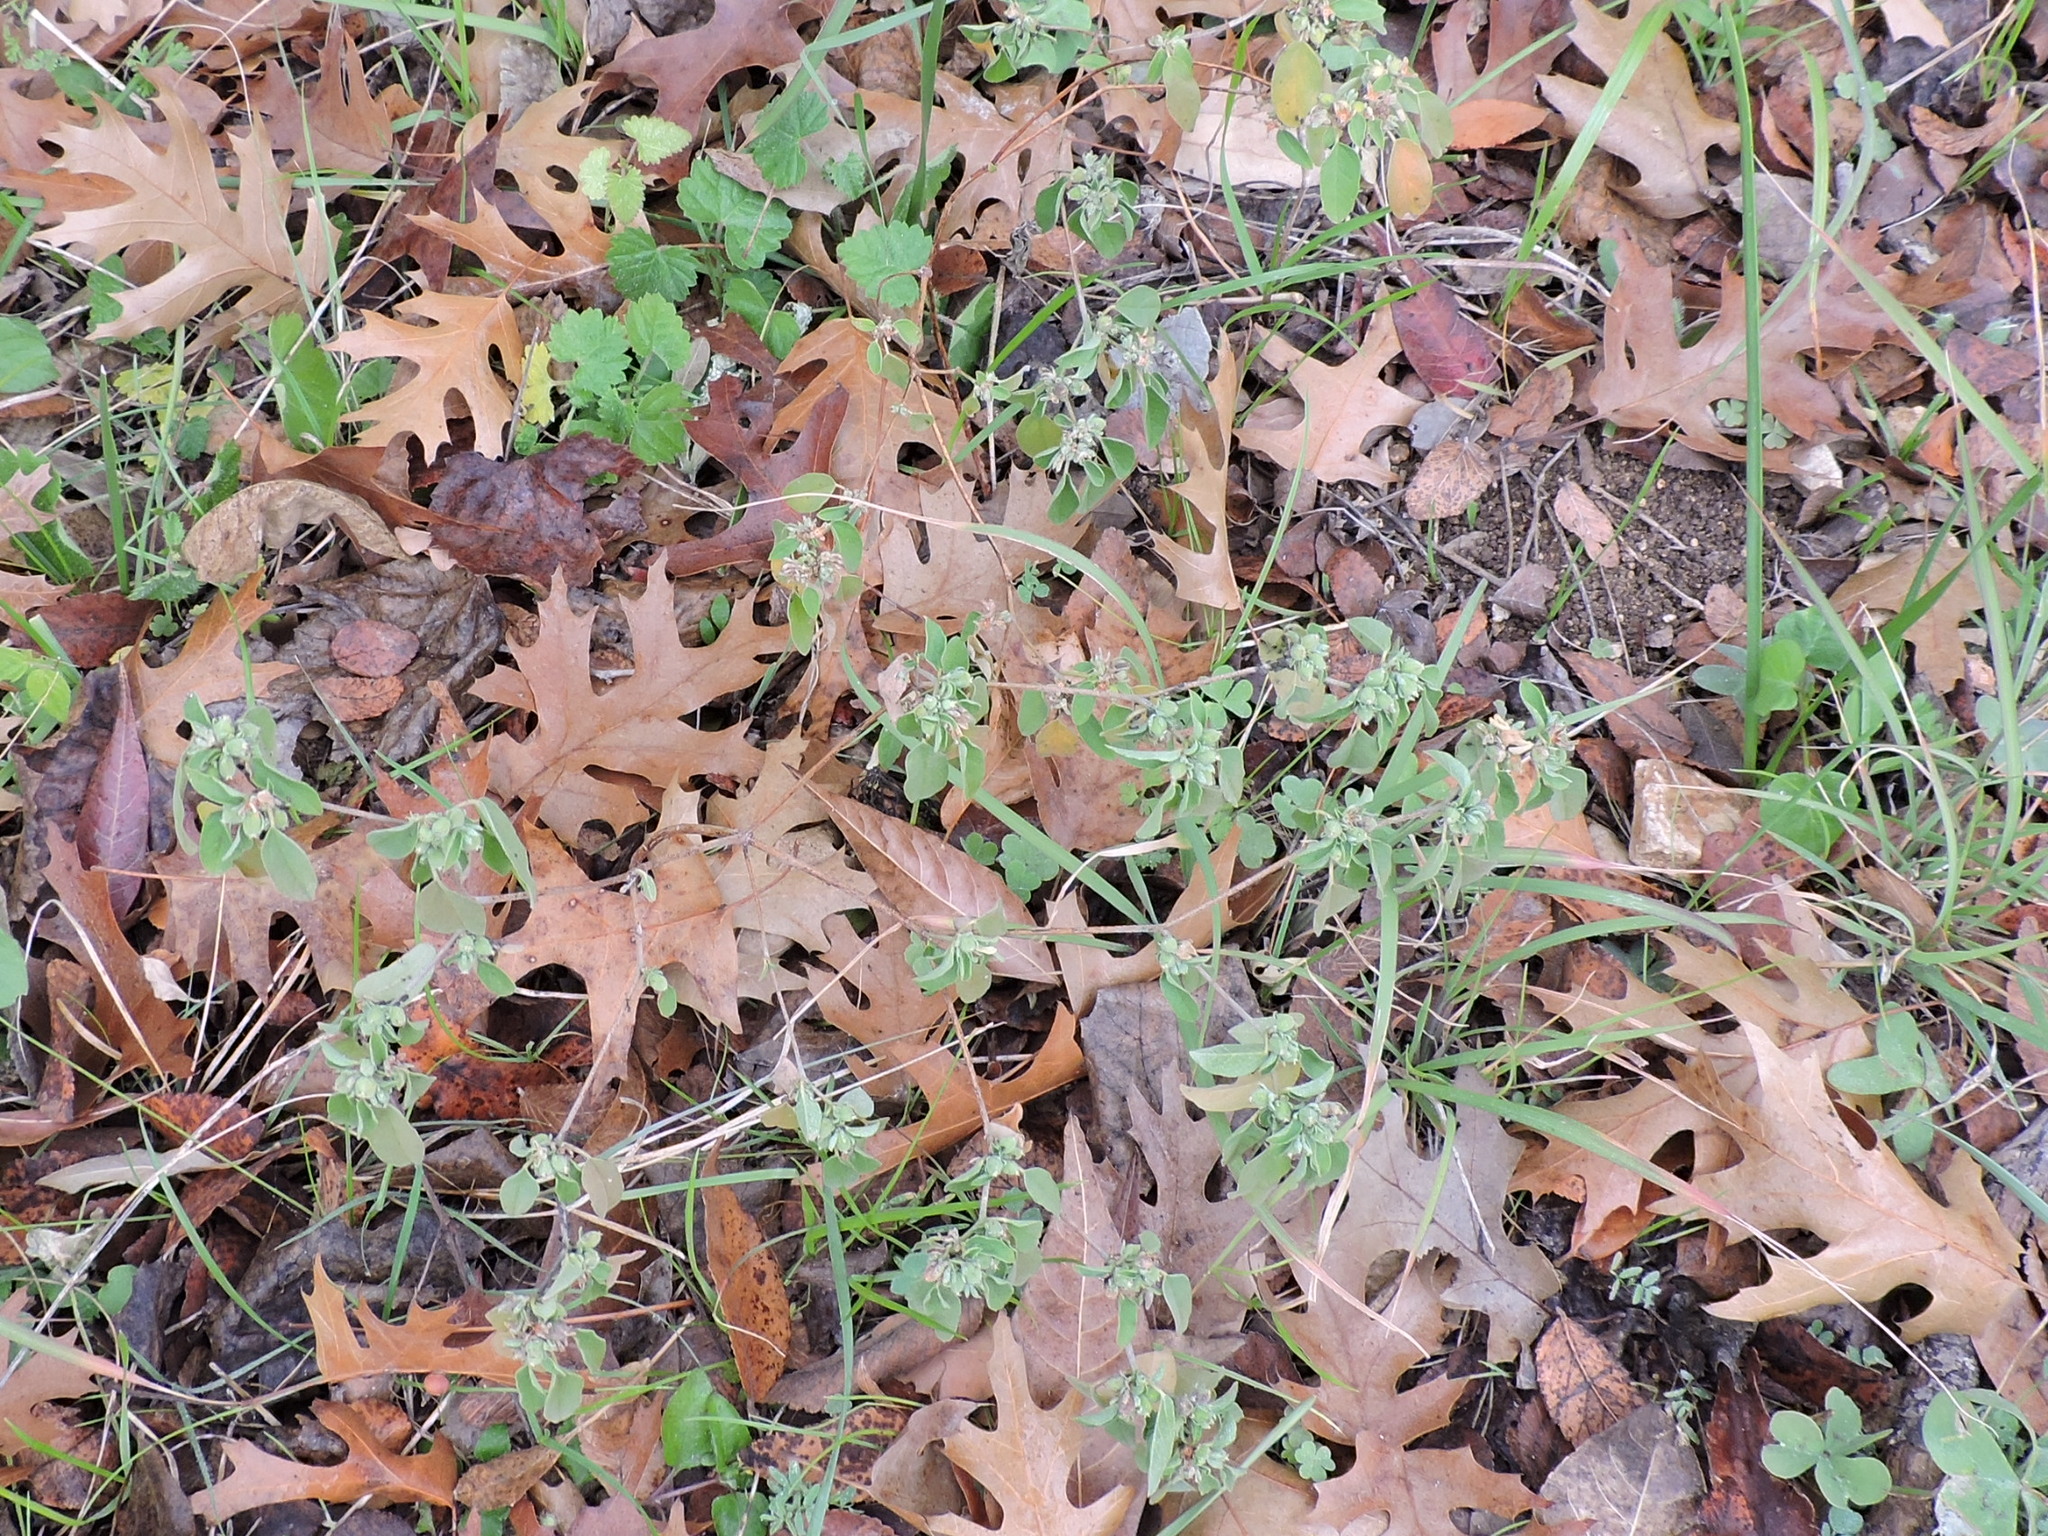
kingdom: Plantae
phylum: Tracheophyta
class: Magnoliopsida
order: Malpighiales
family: Euphorbiaceae
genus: Croton
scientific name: Croton monanthogynus
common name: One-seed croton
